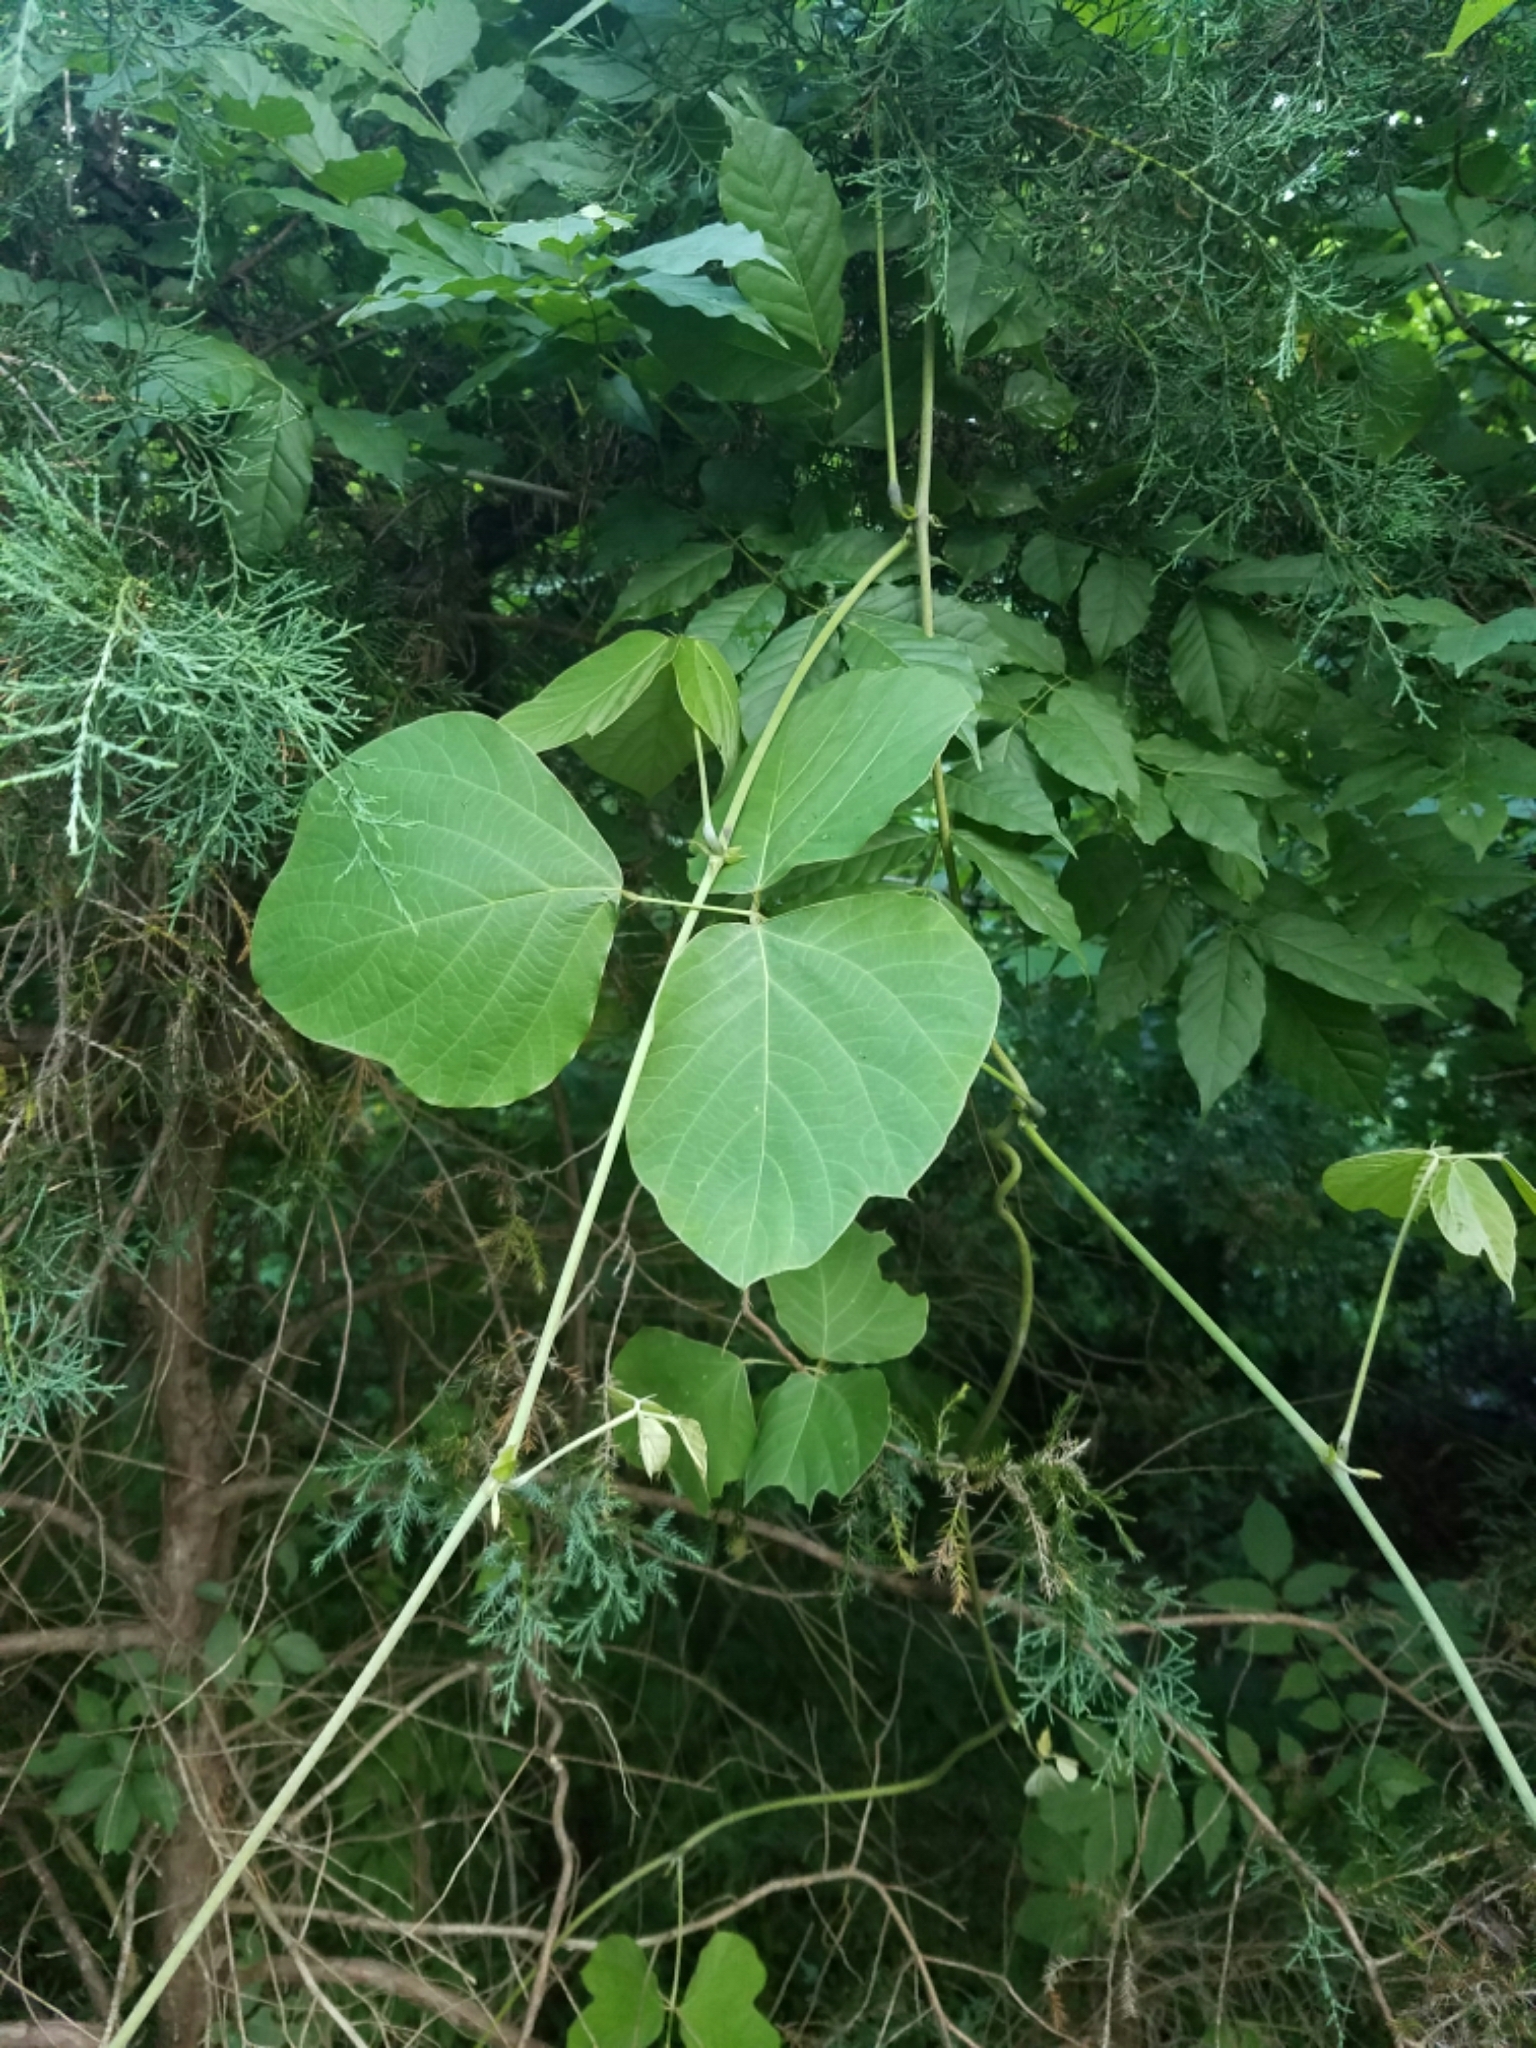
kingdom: Plantae
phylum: Tracheophyta
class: Magnoliopsida
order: Fabales
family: Fabaceae
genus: Pueraria
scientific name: Pueraria montana
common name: Kudzu
